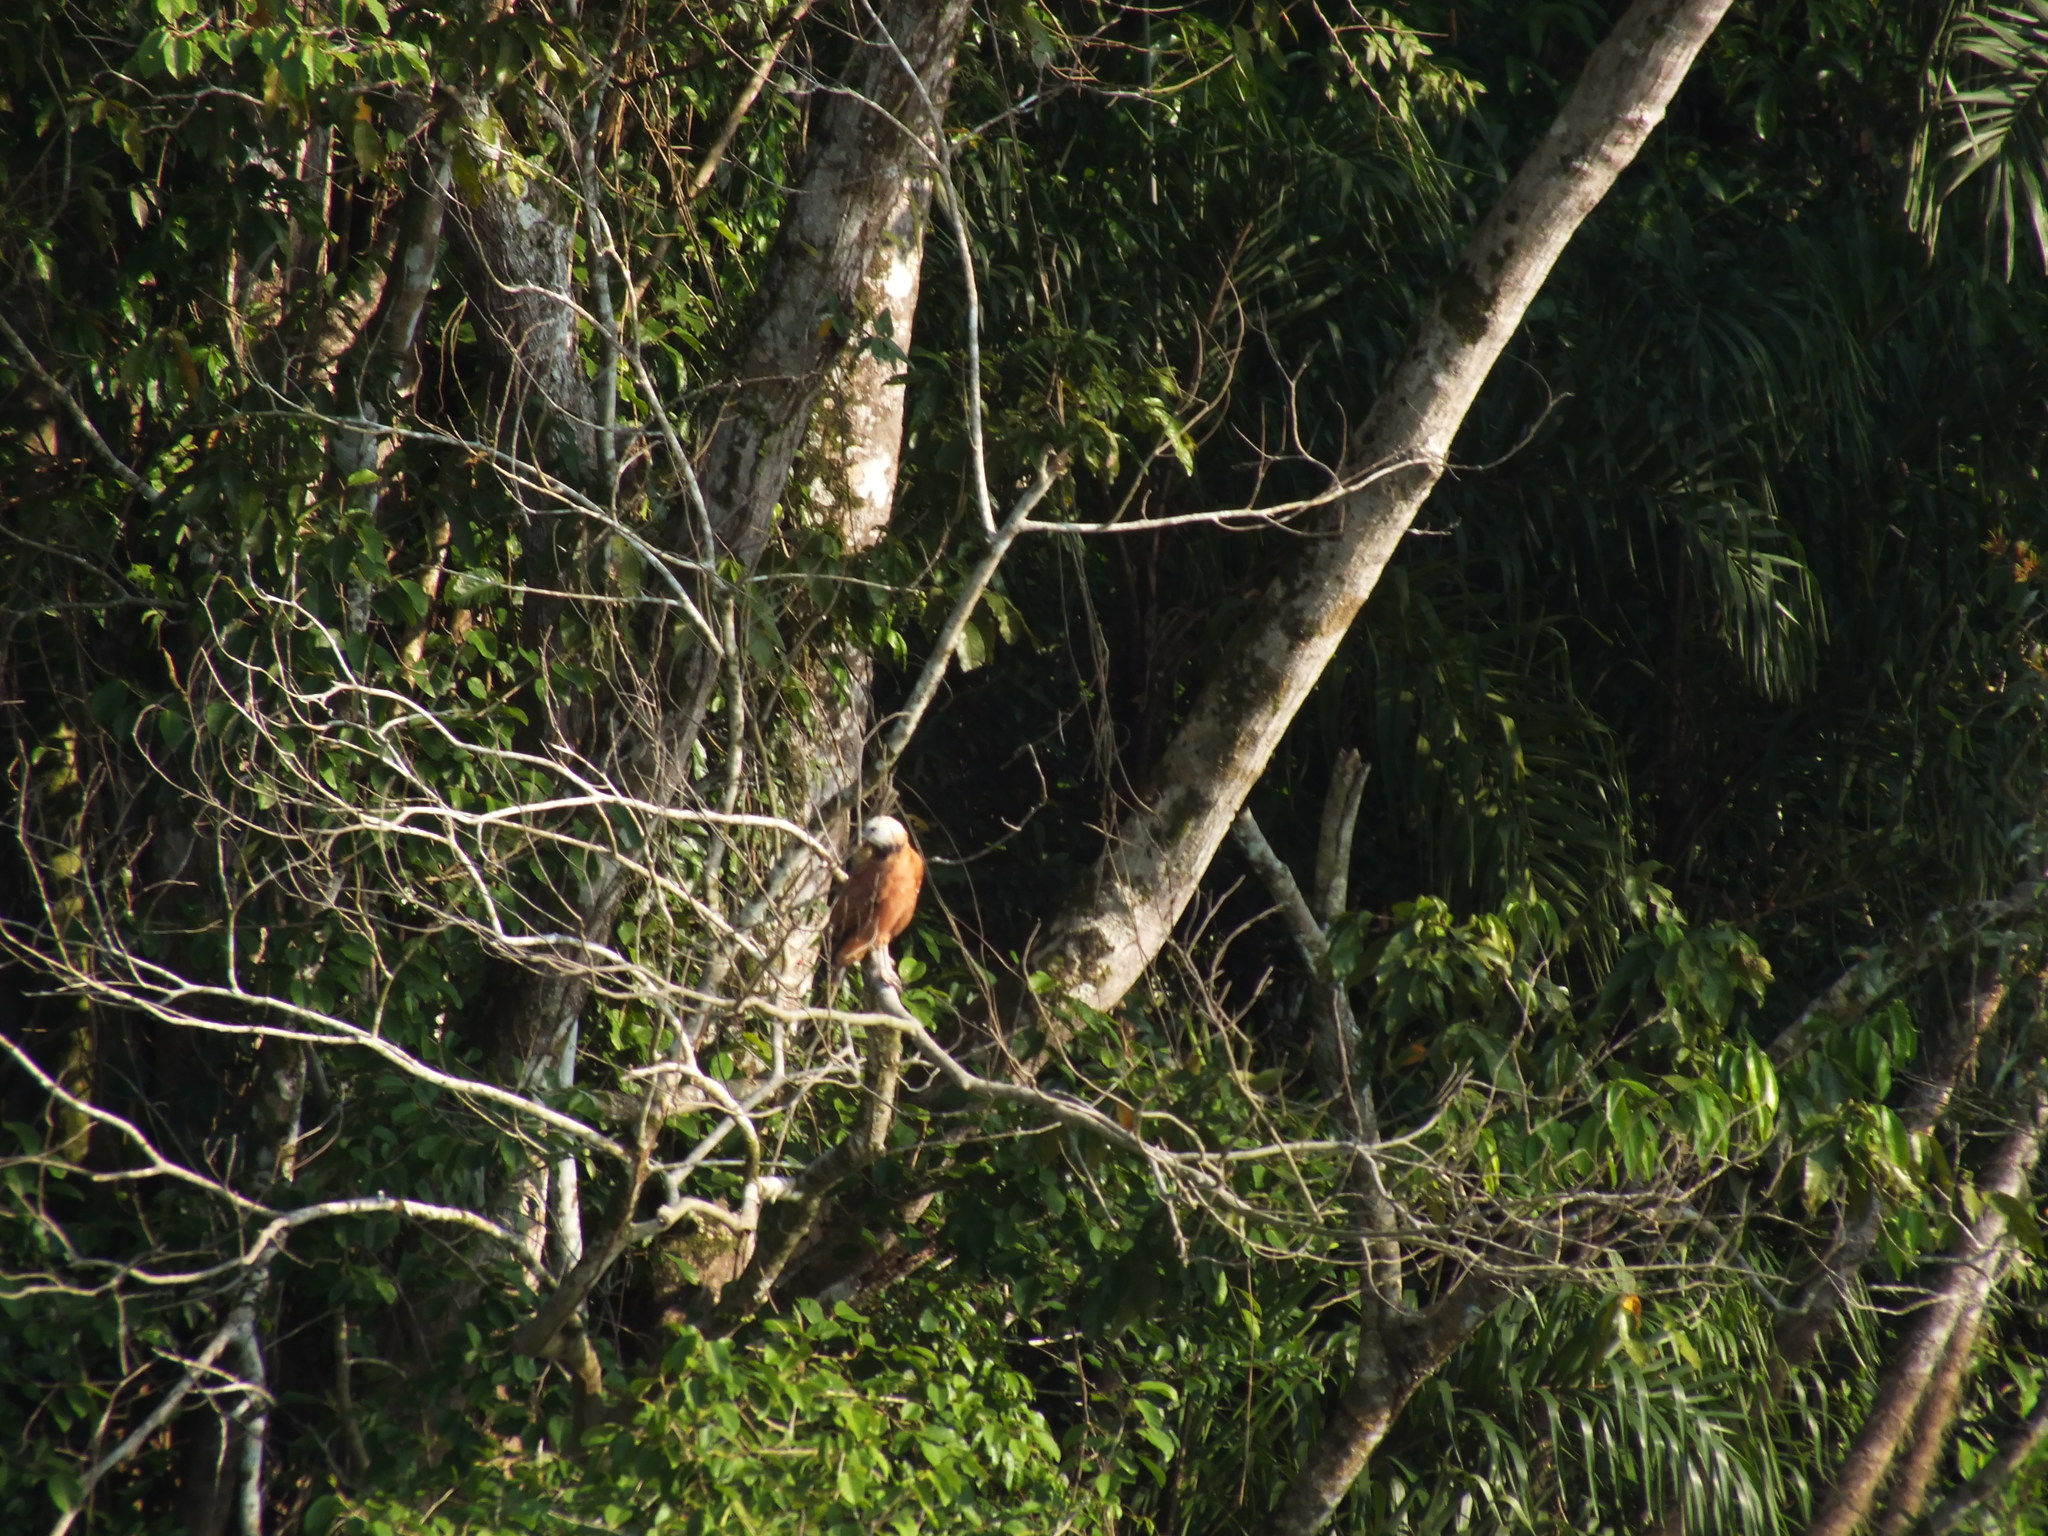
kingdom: Animalia
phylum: Chordata
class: Aves
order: Accipitriformes
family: Accipitridae
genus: Busarellus
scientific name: Busarellus nigricollis
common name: Black-collared hawk
